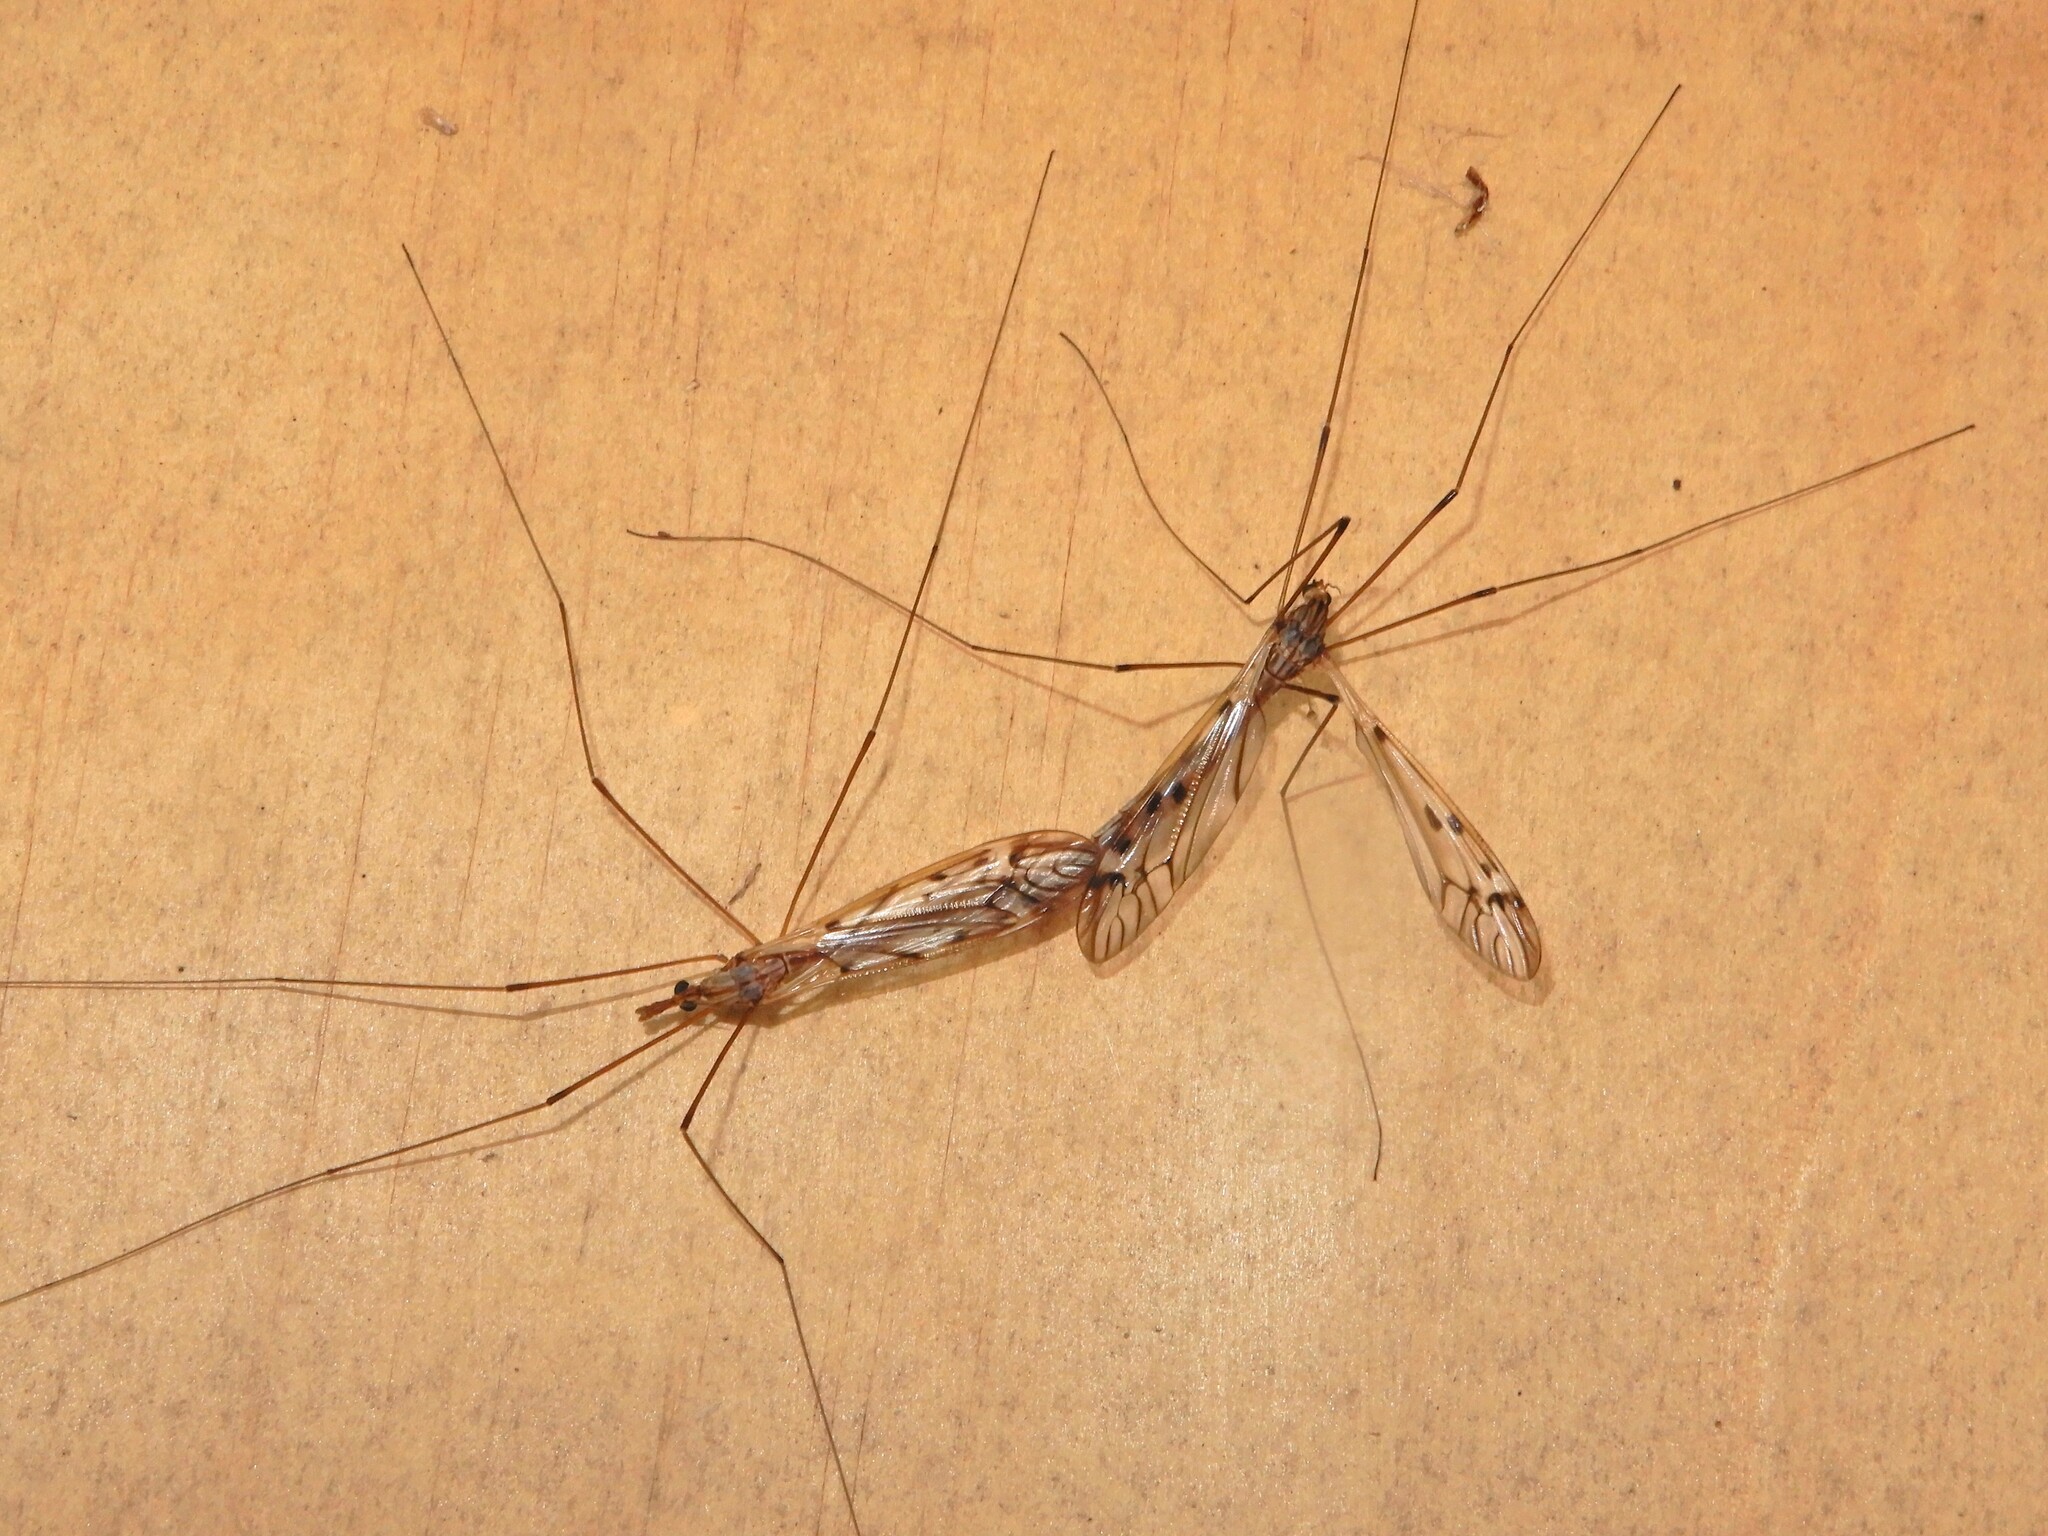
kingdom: Animalia
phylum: Arthropoda
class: Insecta
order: Diptera
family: Tipulidae
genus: Zelandotipula
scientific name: Zelandotipula novarae
